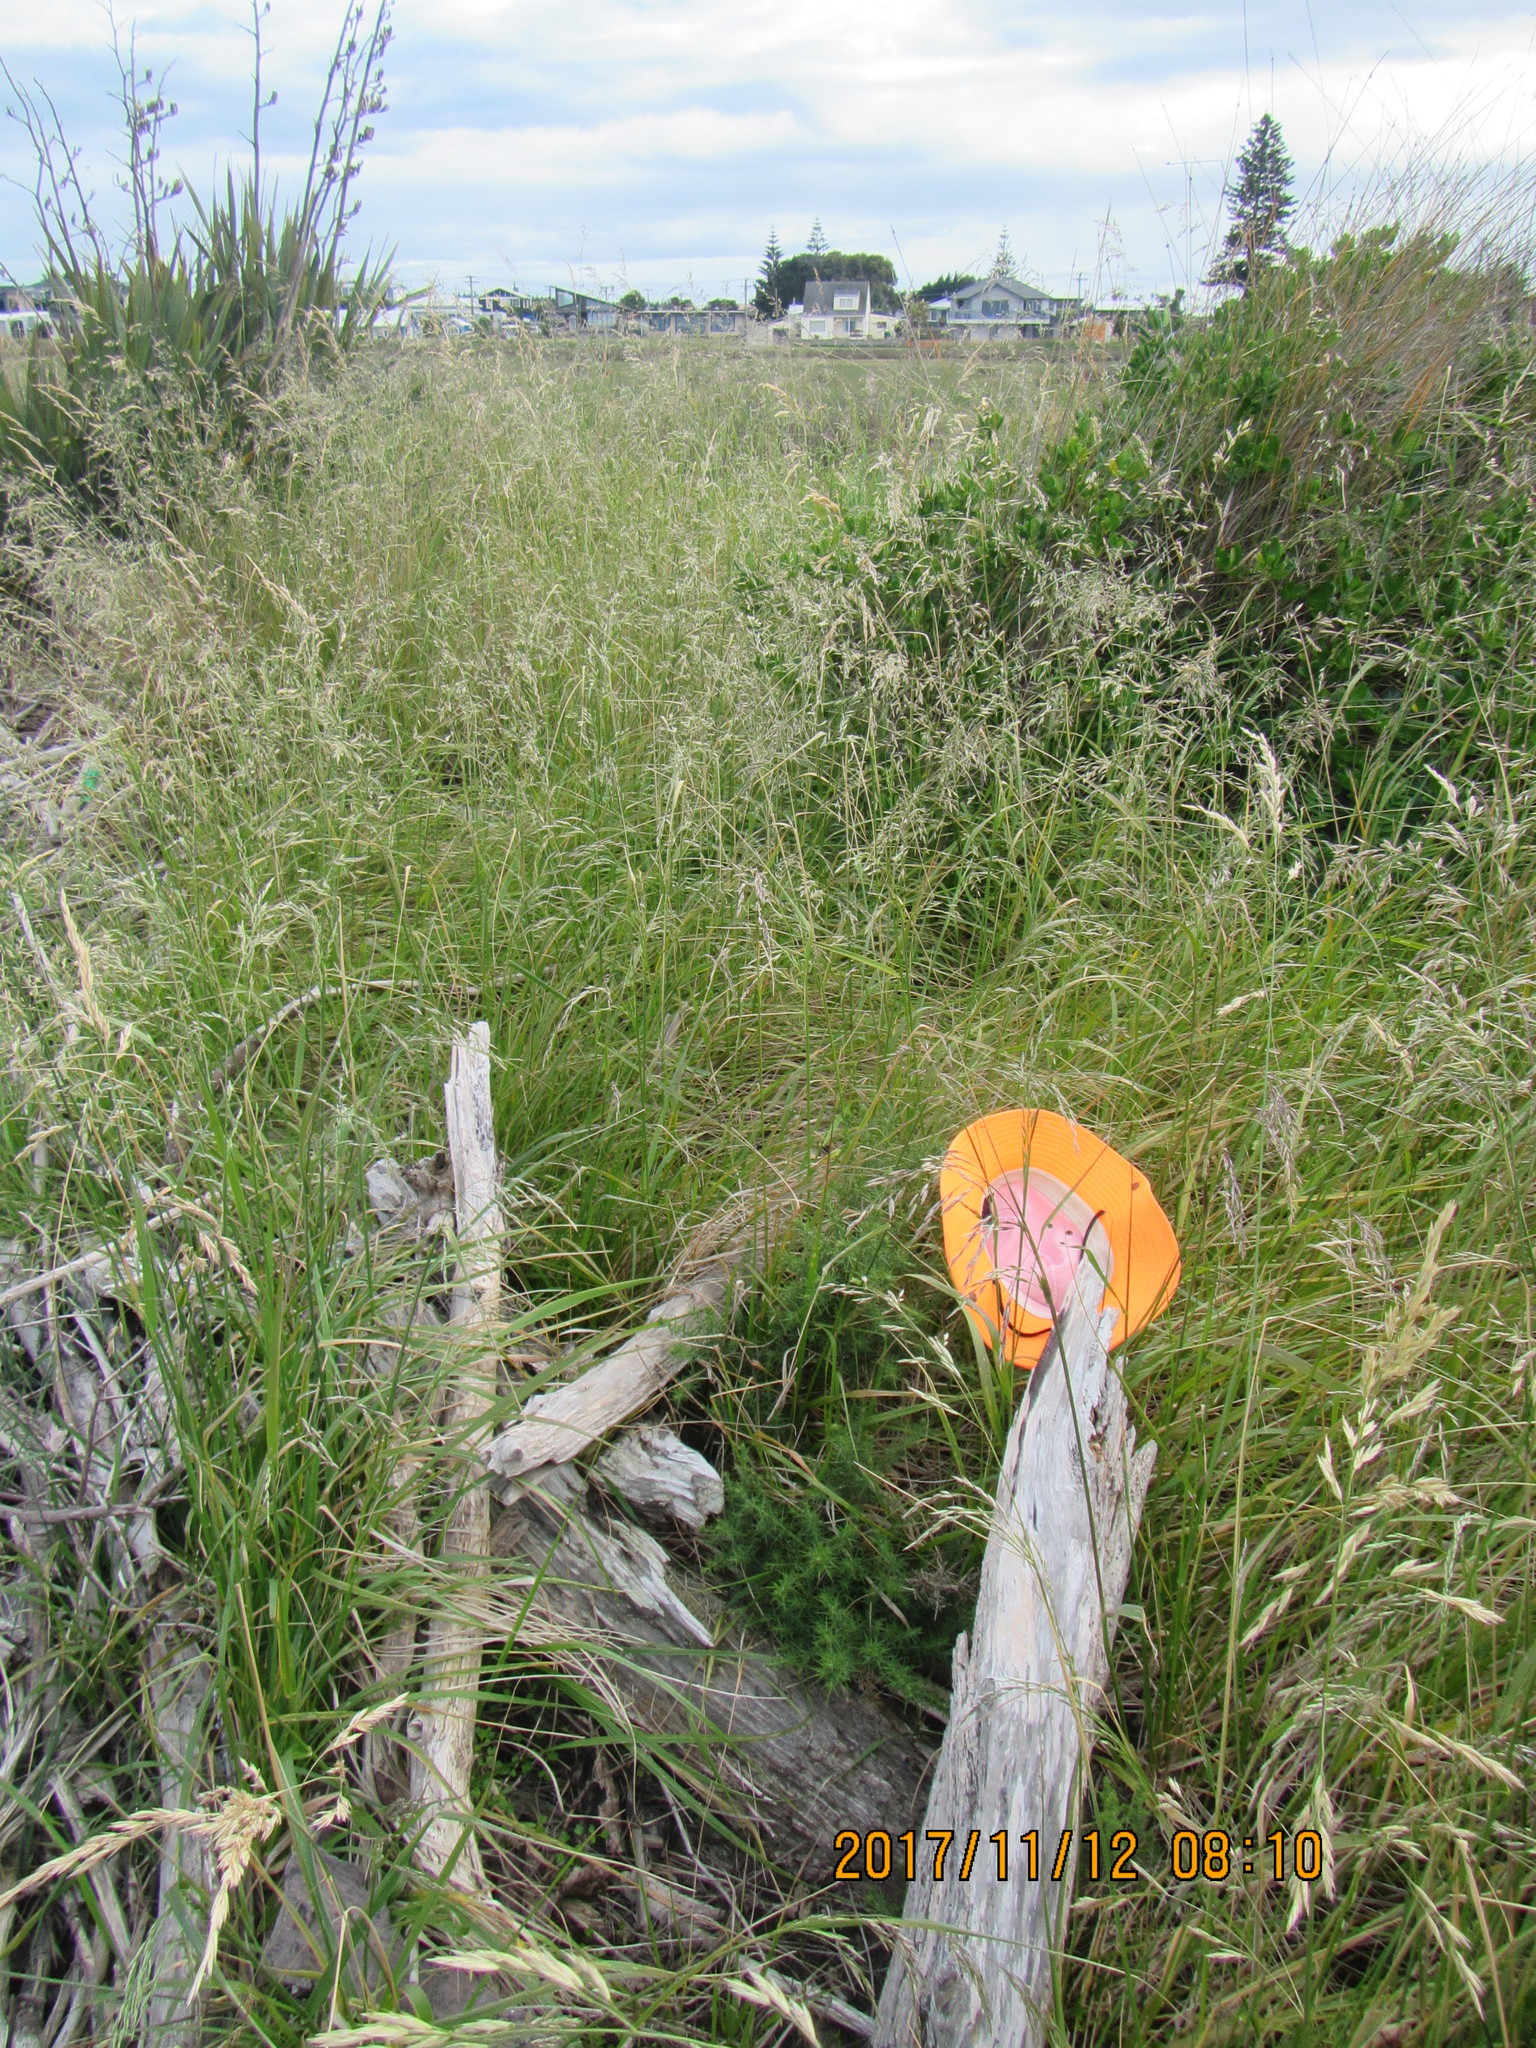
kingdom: Plantae
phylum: Tracheophyta
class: Magnoliopsida
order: Fabales
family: Fabaceae
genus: Ulex
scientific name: Ulex europaeus
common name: Common gorse
